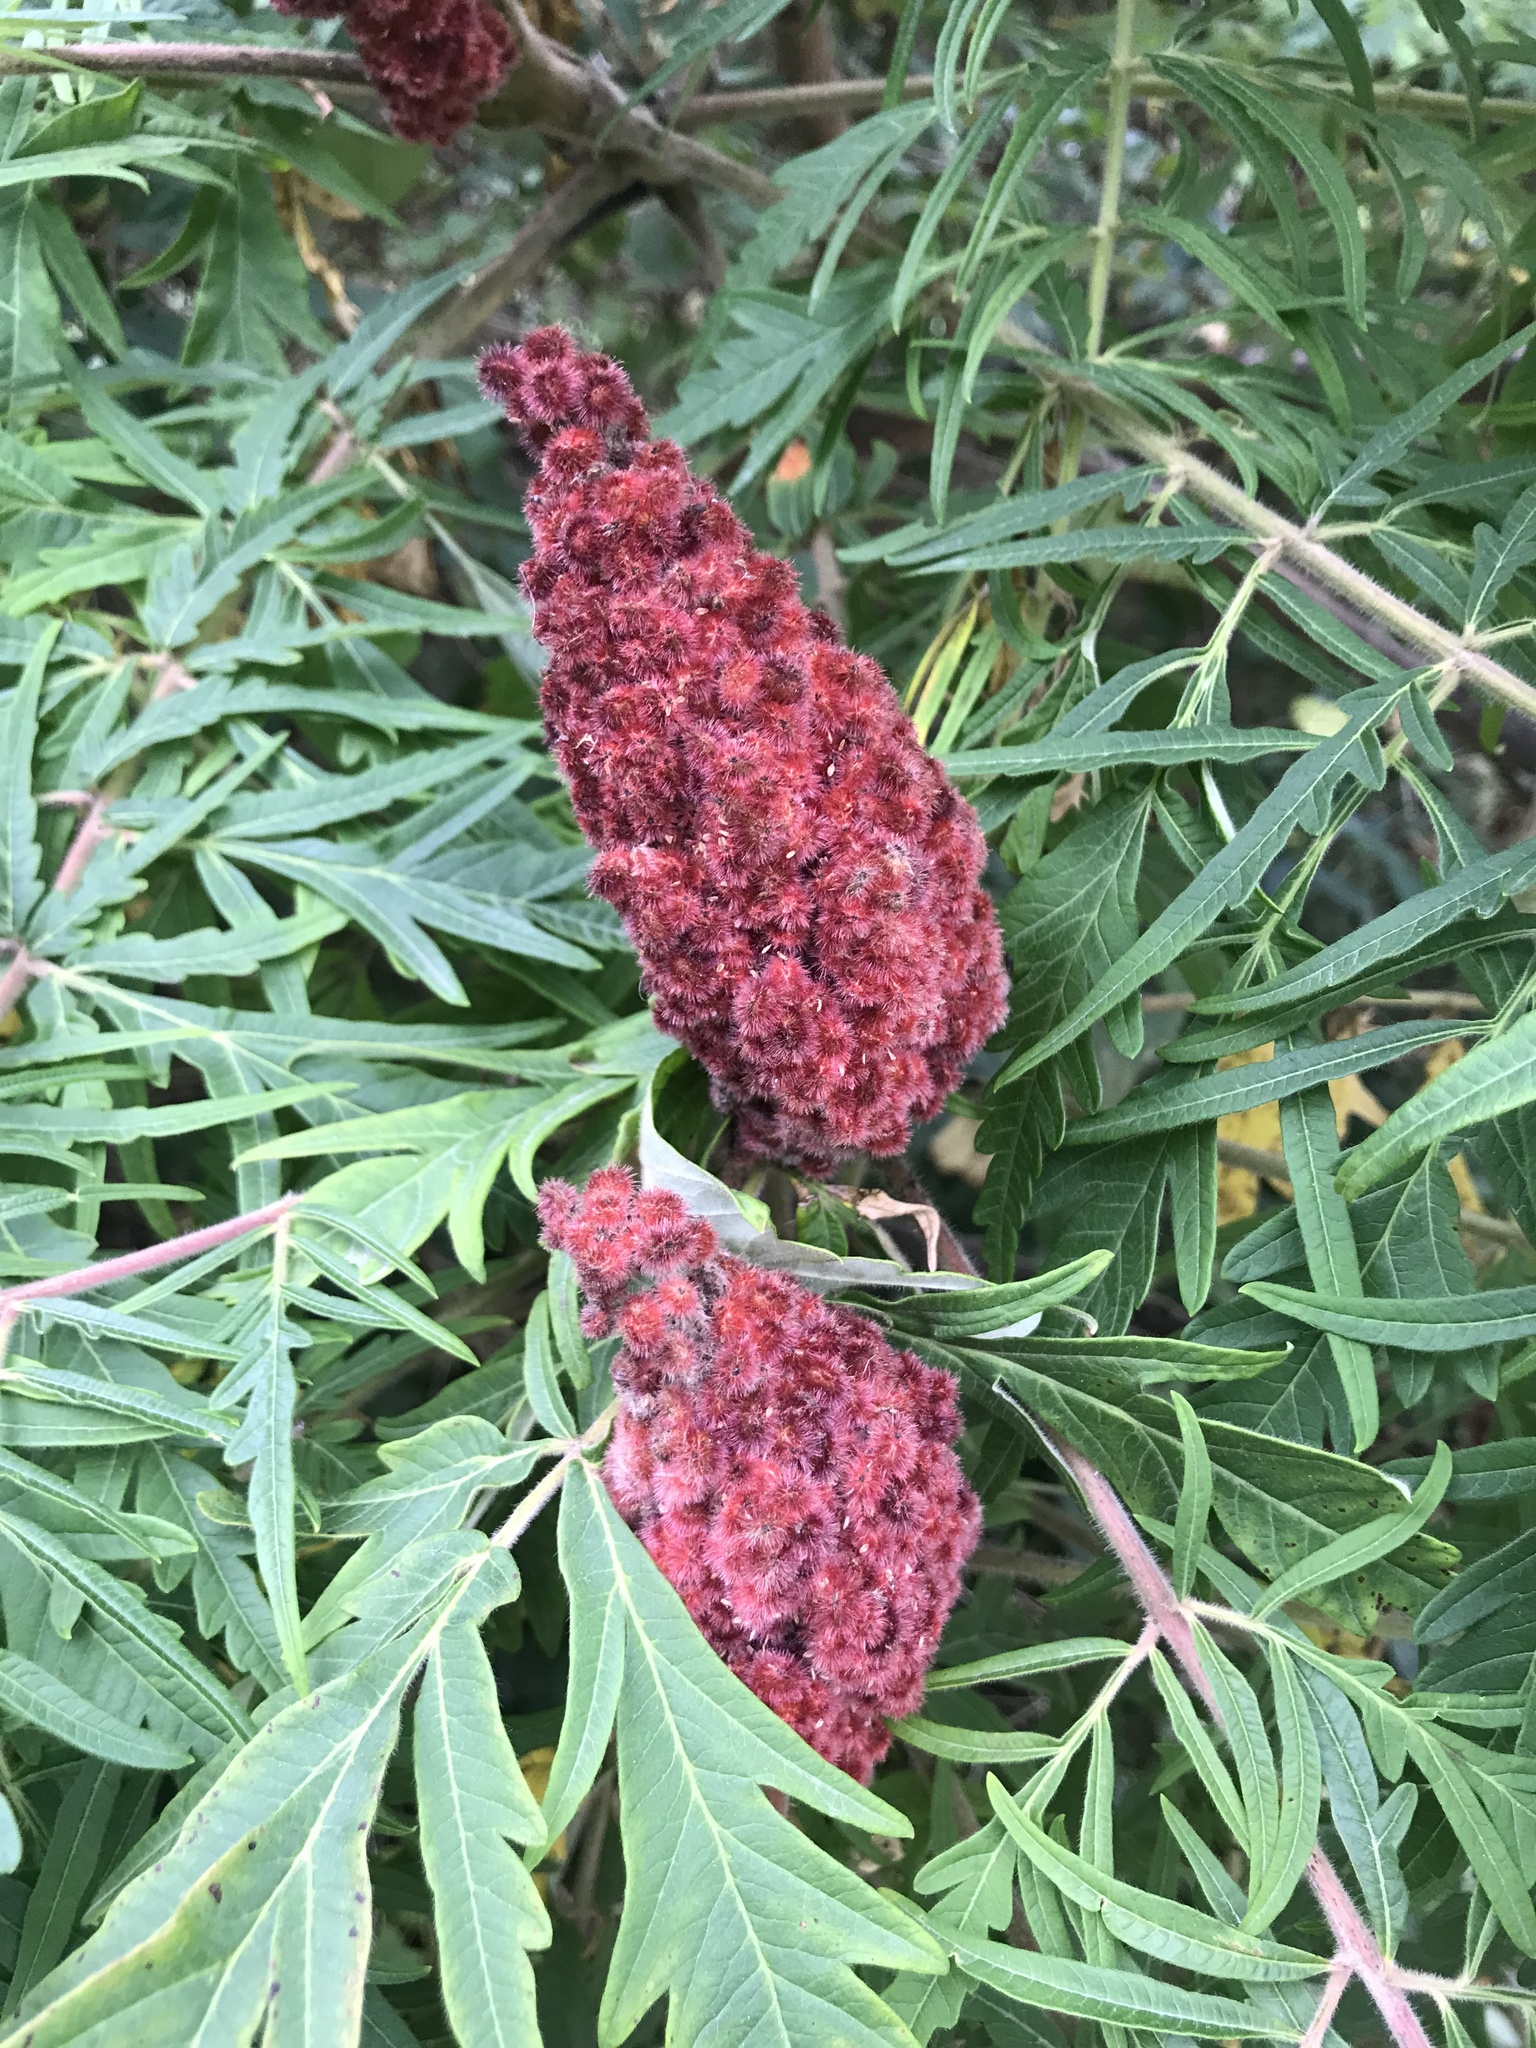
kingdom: Plantae
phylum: Tracheophyta
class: Magnoliopsida
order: Sapindales
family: Anacardiaceae
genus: Rhus
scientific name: Rhus typhina
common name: Staghorn sumac
